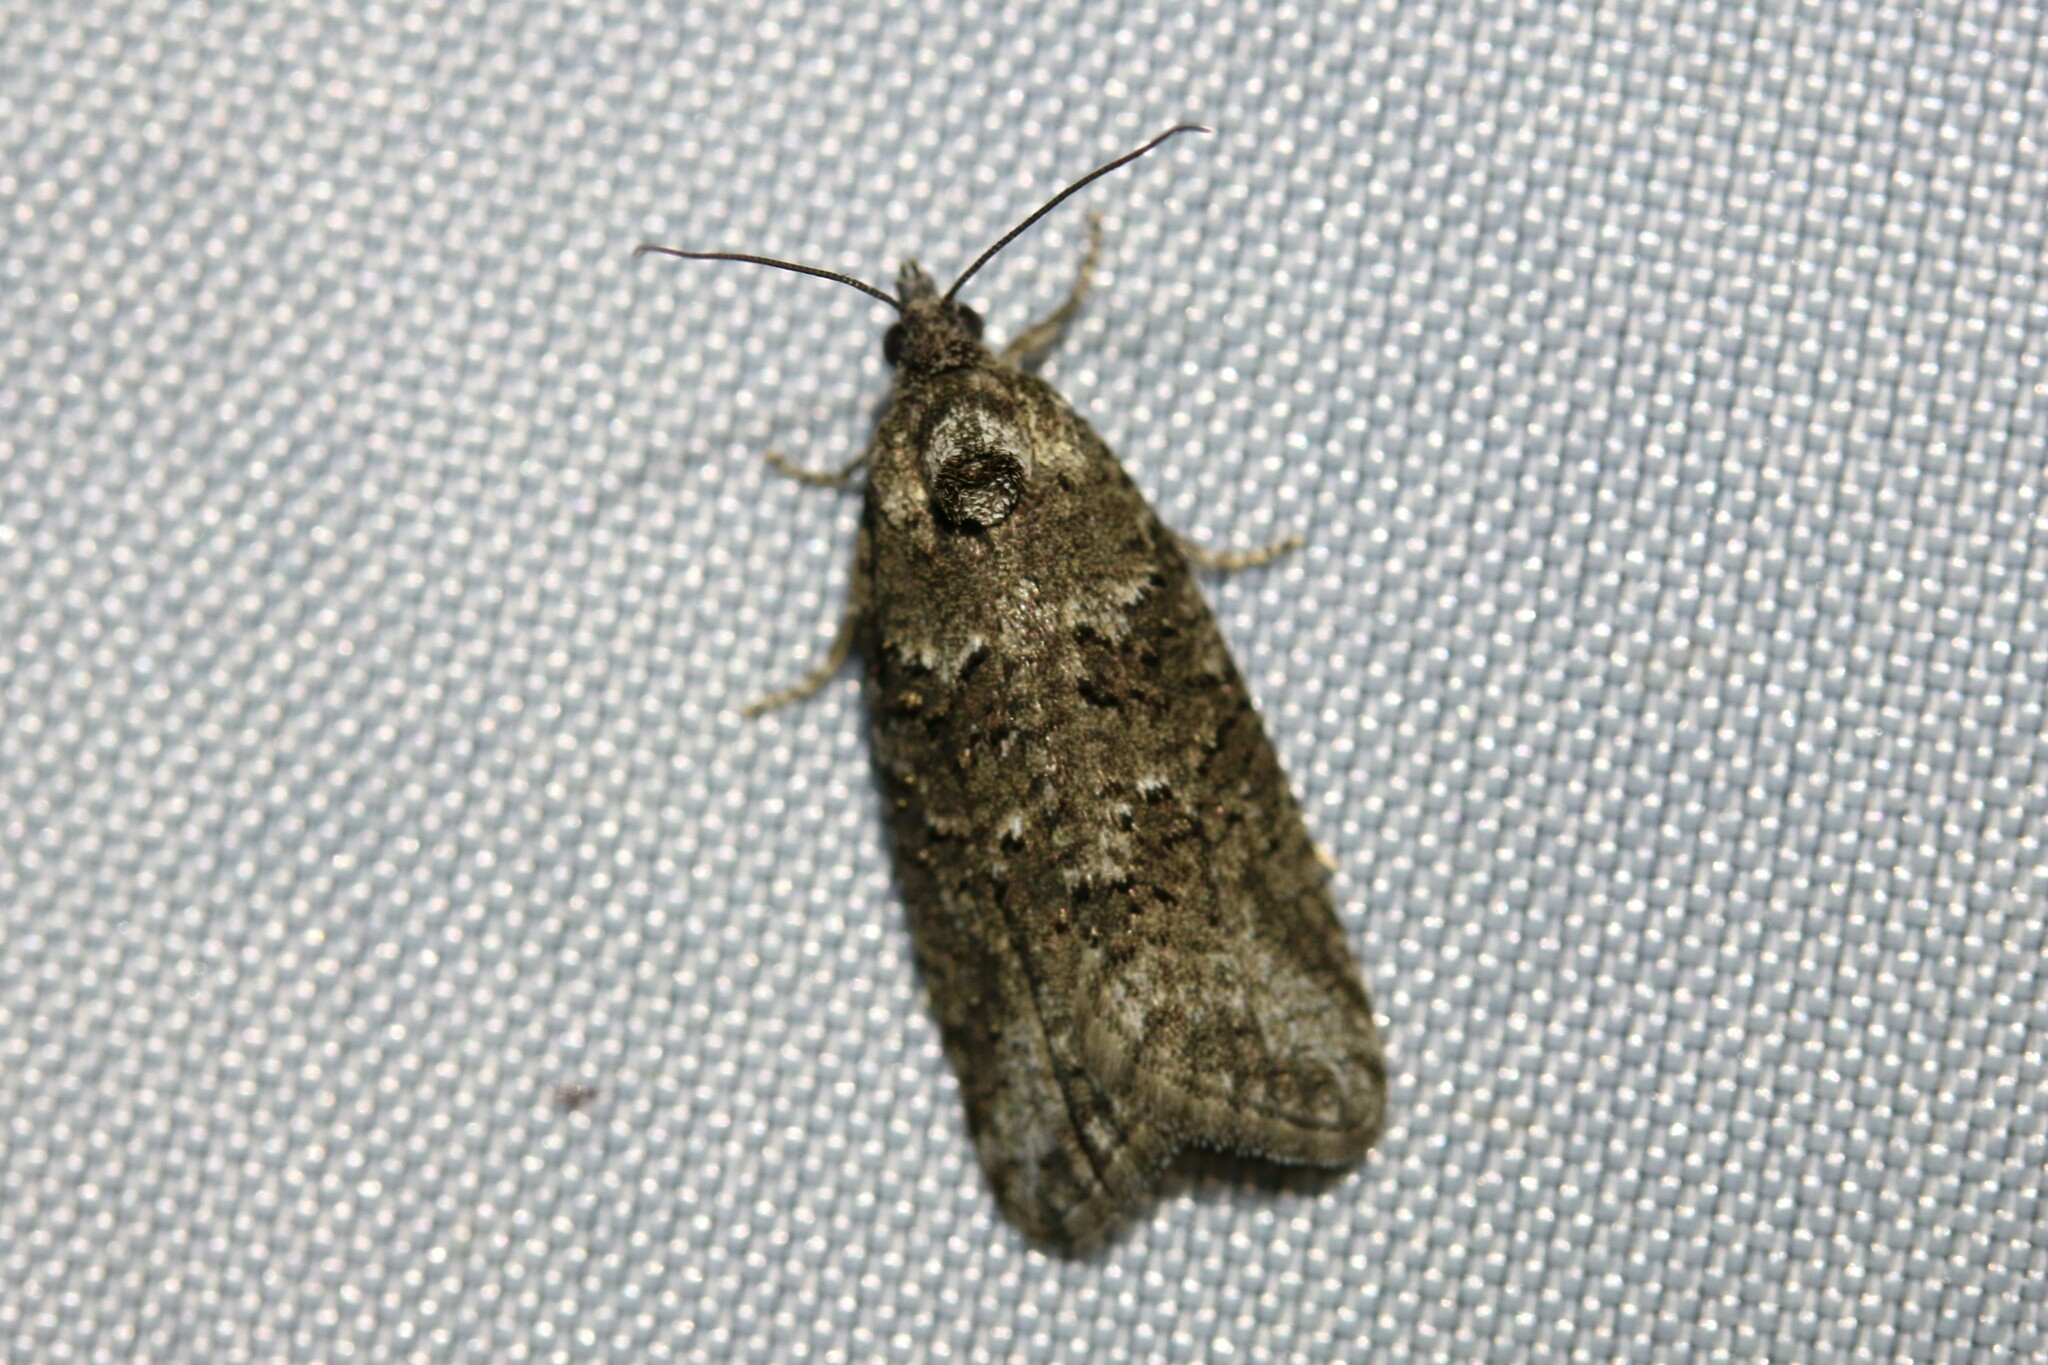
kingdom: Animalia
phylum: Arthropoda
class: Insecta
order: Lepidoptera
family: Tortricidae
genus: Cnephasia
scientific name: Cnephasia cupressivorana
